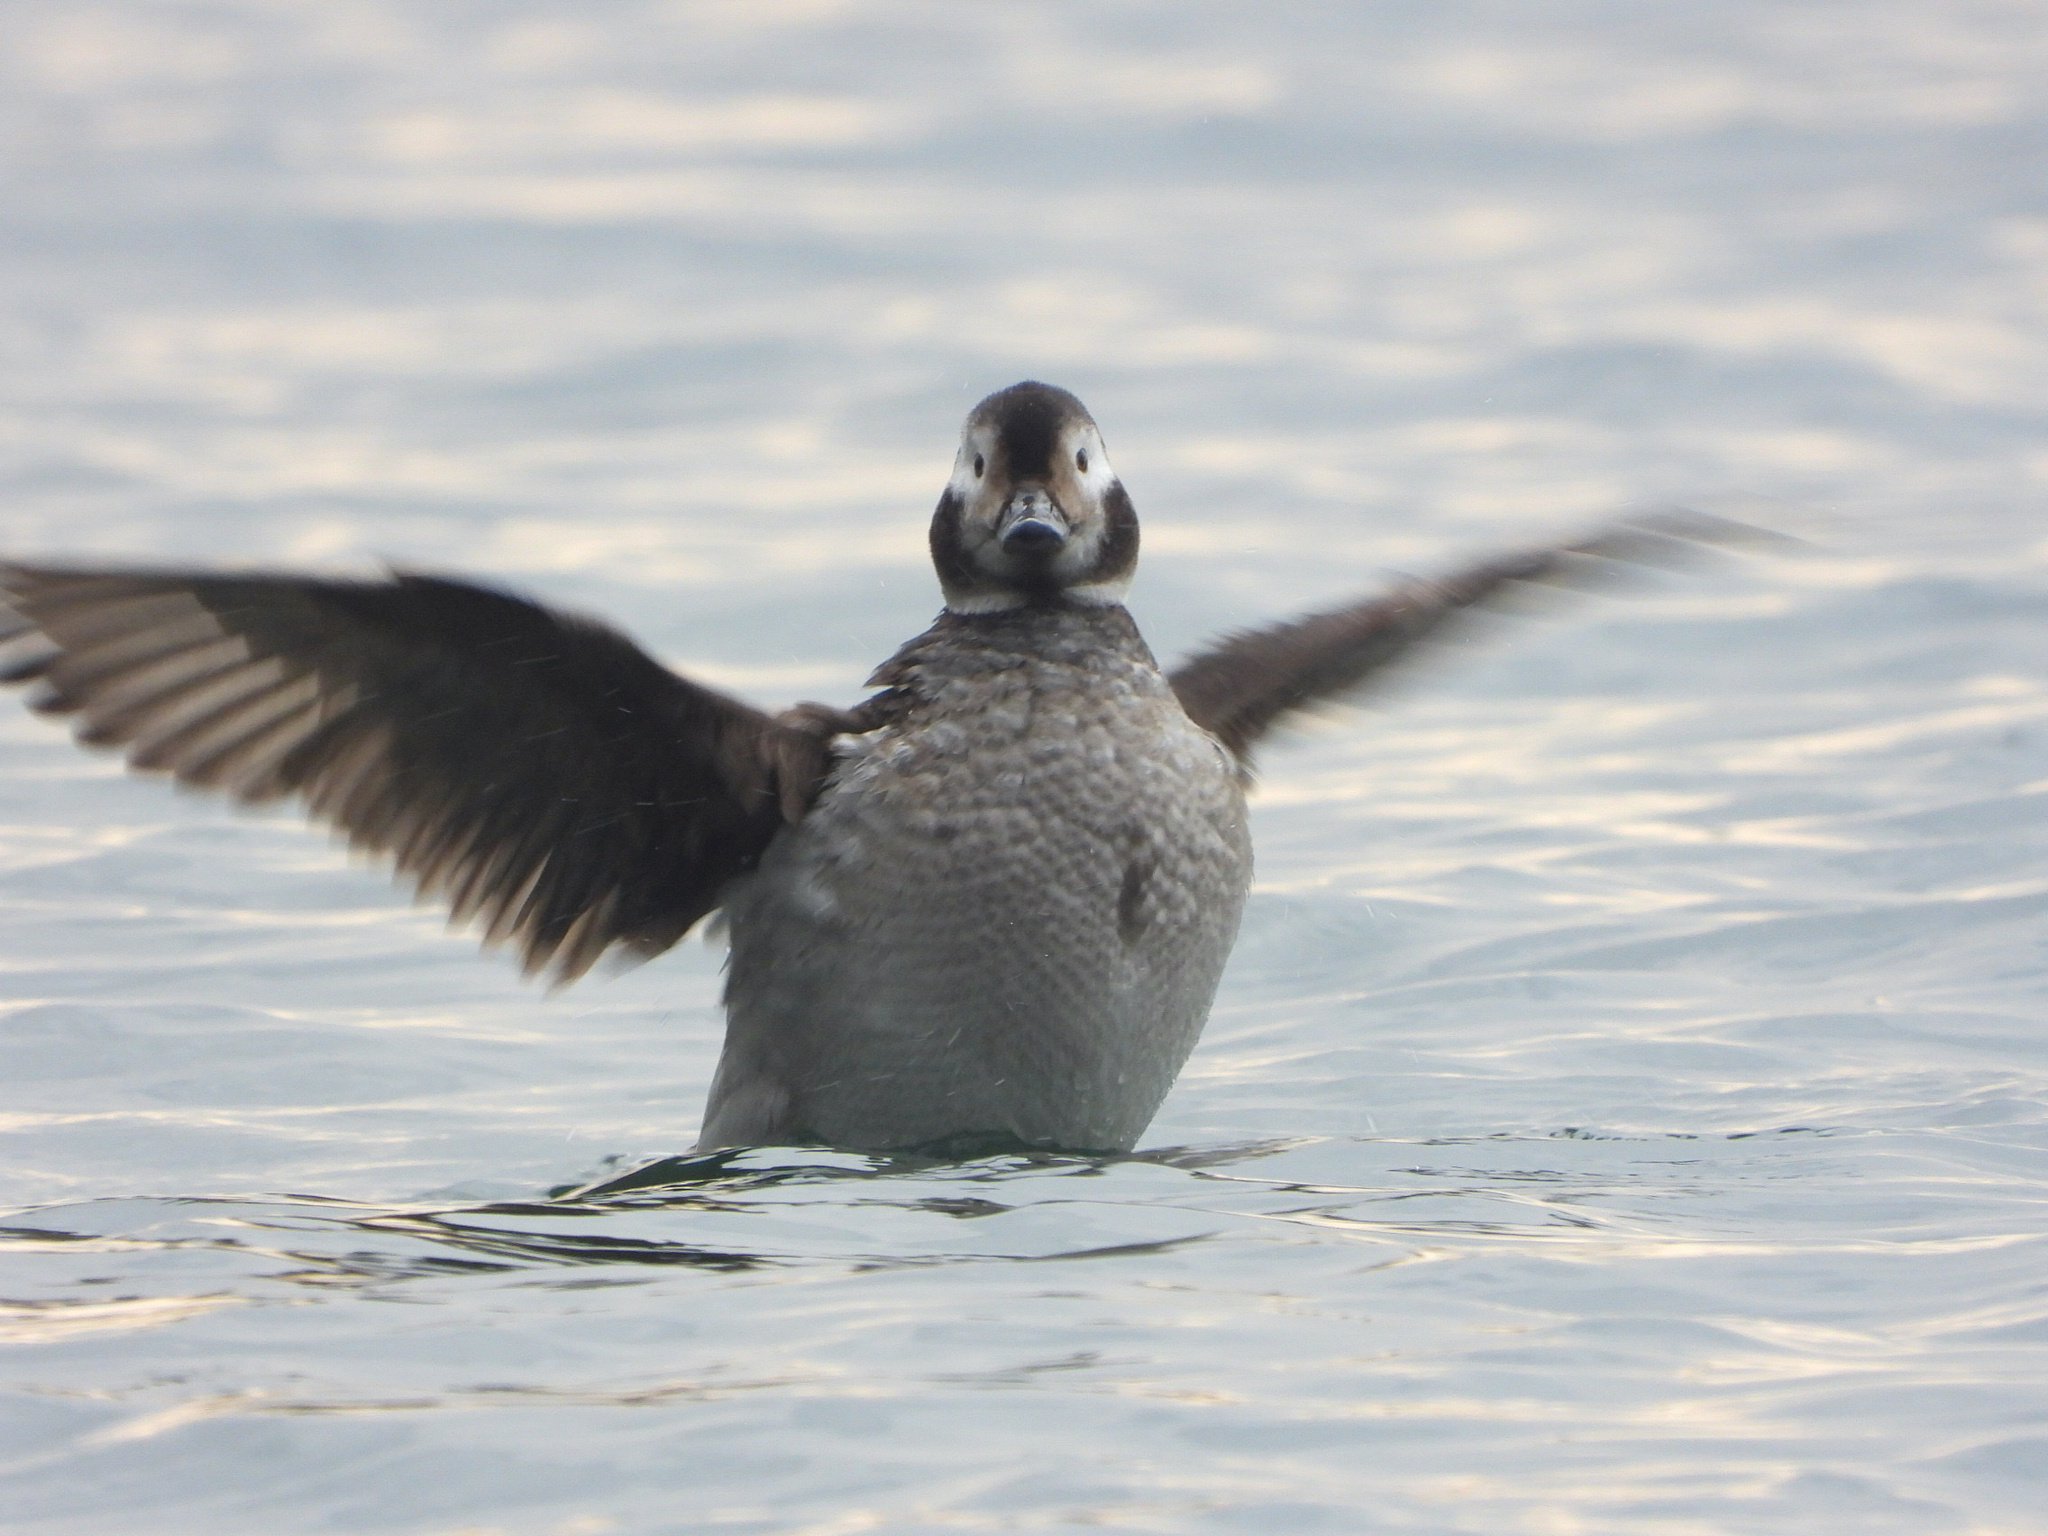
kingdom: Animalia
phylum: Chordata
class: Aves
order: Anseriformes
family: Anatidae
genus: Clangula
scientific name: Clangula hyemalis
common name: Long-tailed duck
